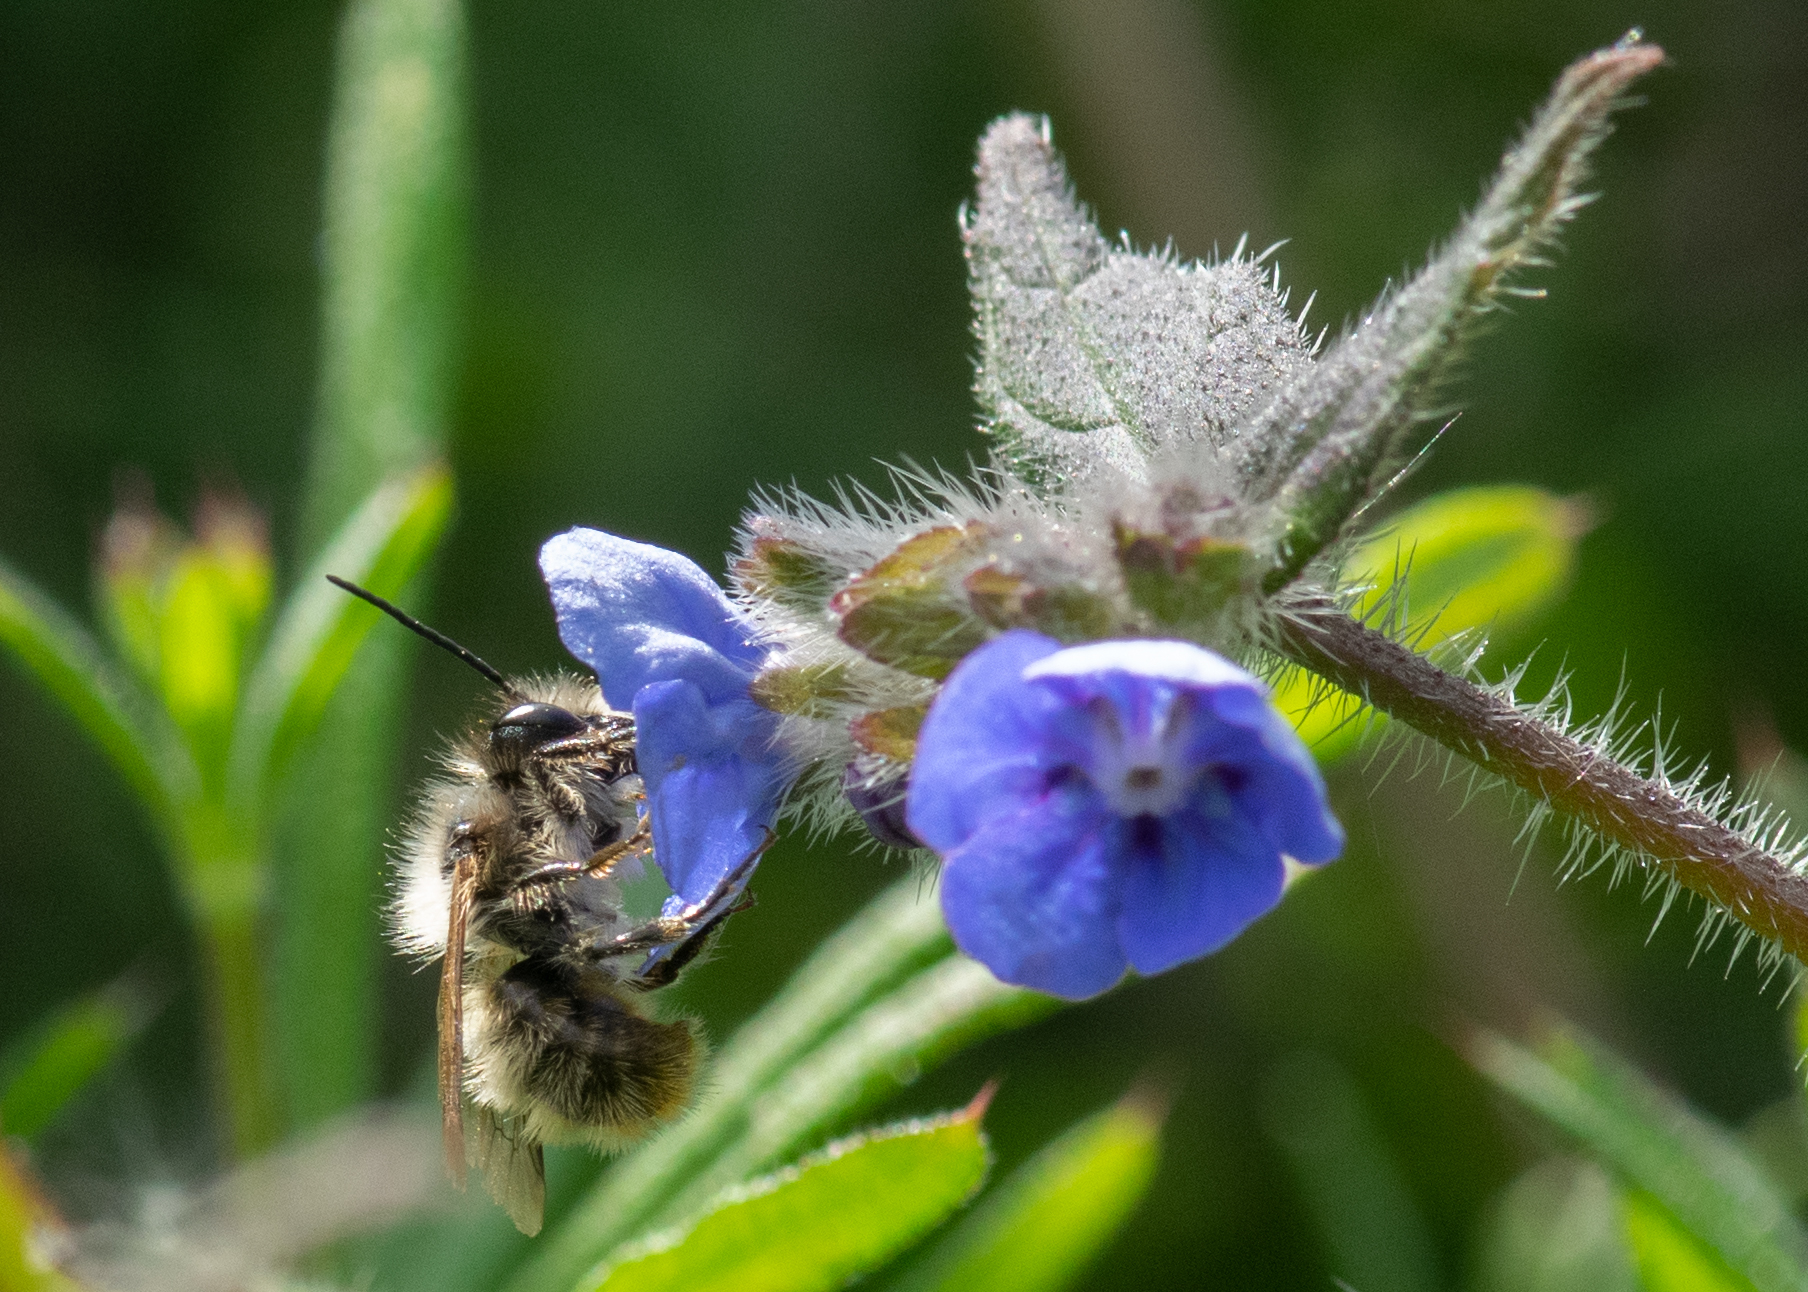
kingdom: Animalia
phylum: Arthropoda
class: Insecta
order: Hymenoptera
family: Megachilidae
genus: Osmia
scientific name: Osmia bicornis
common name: Red mason bee
